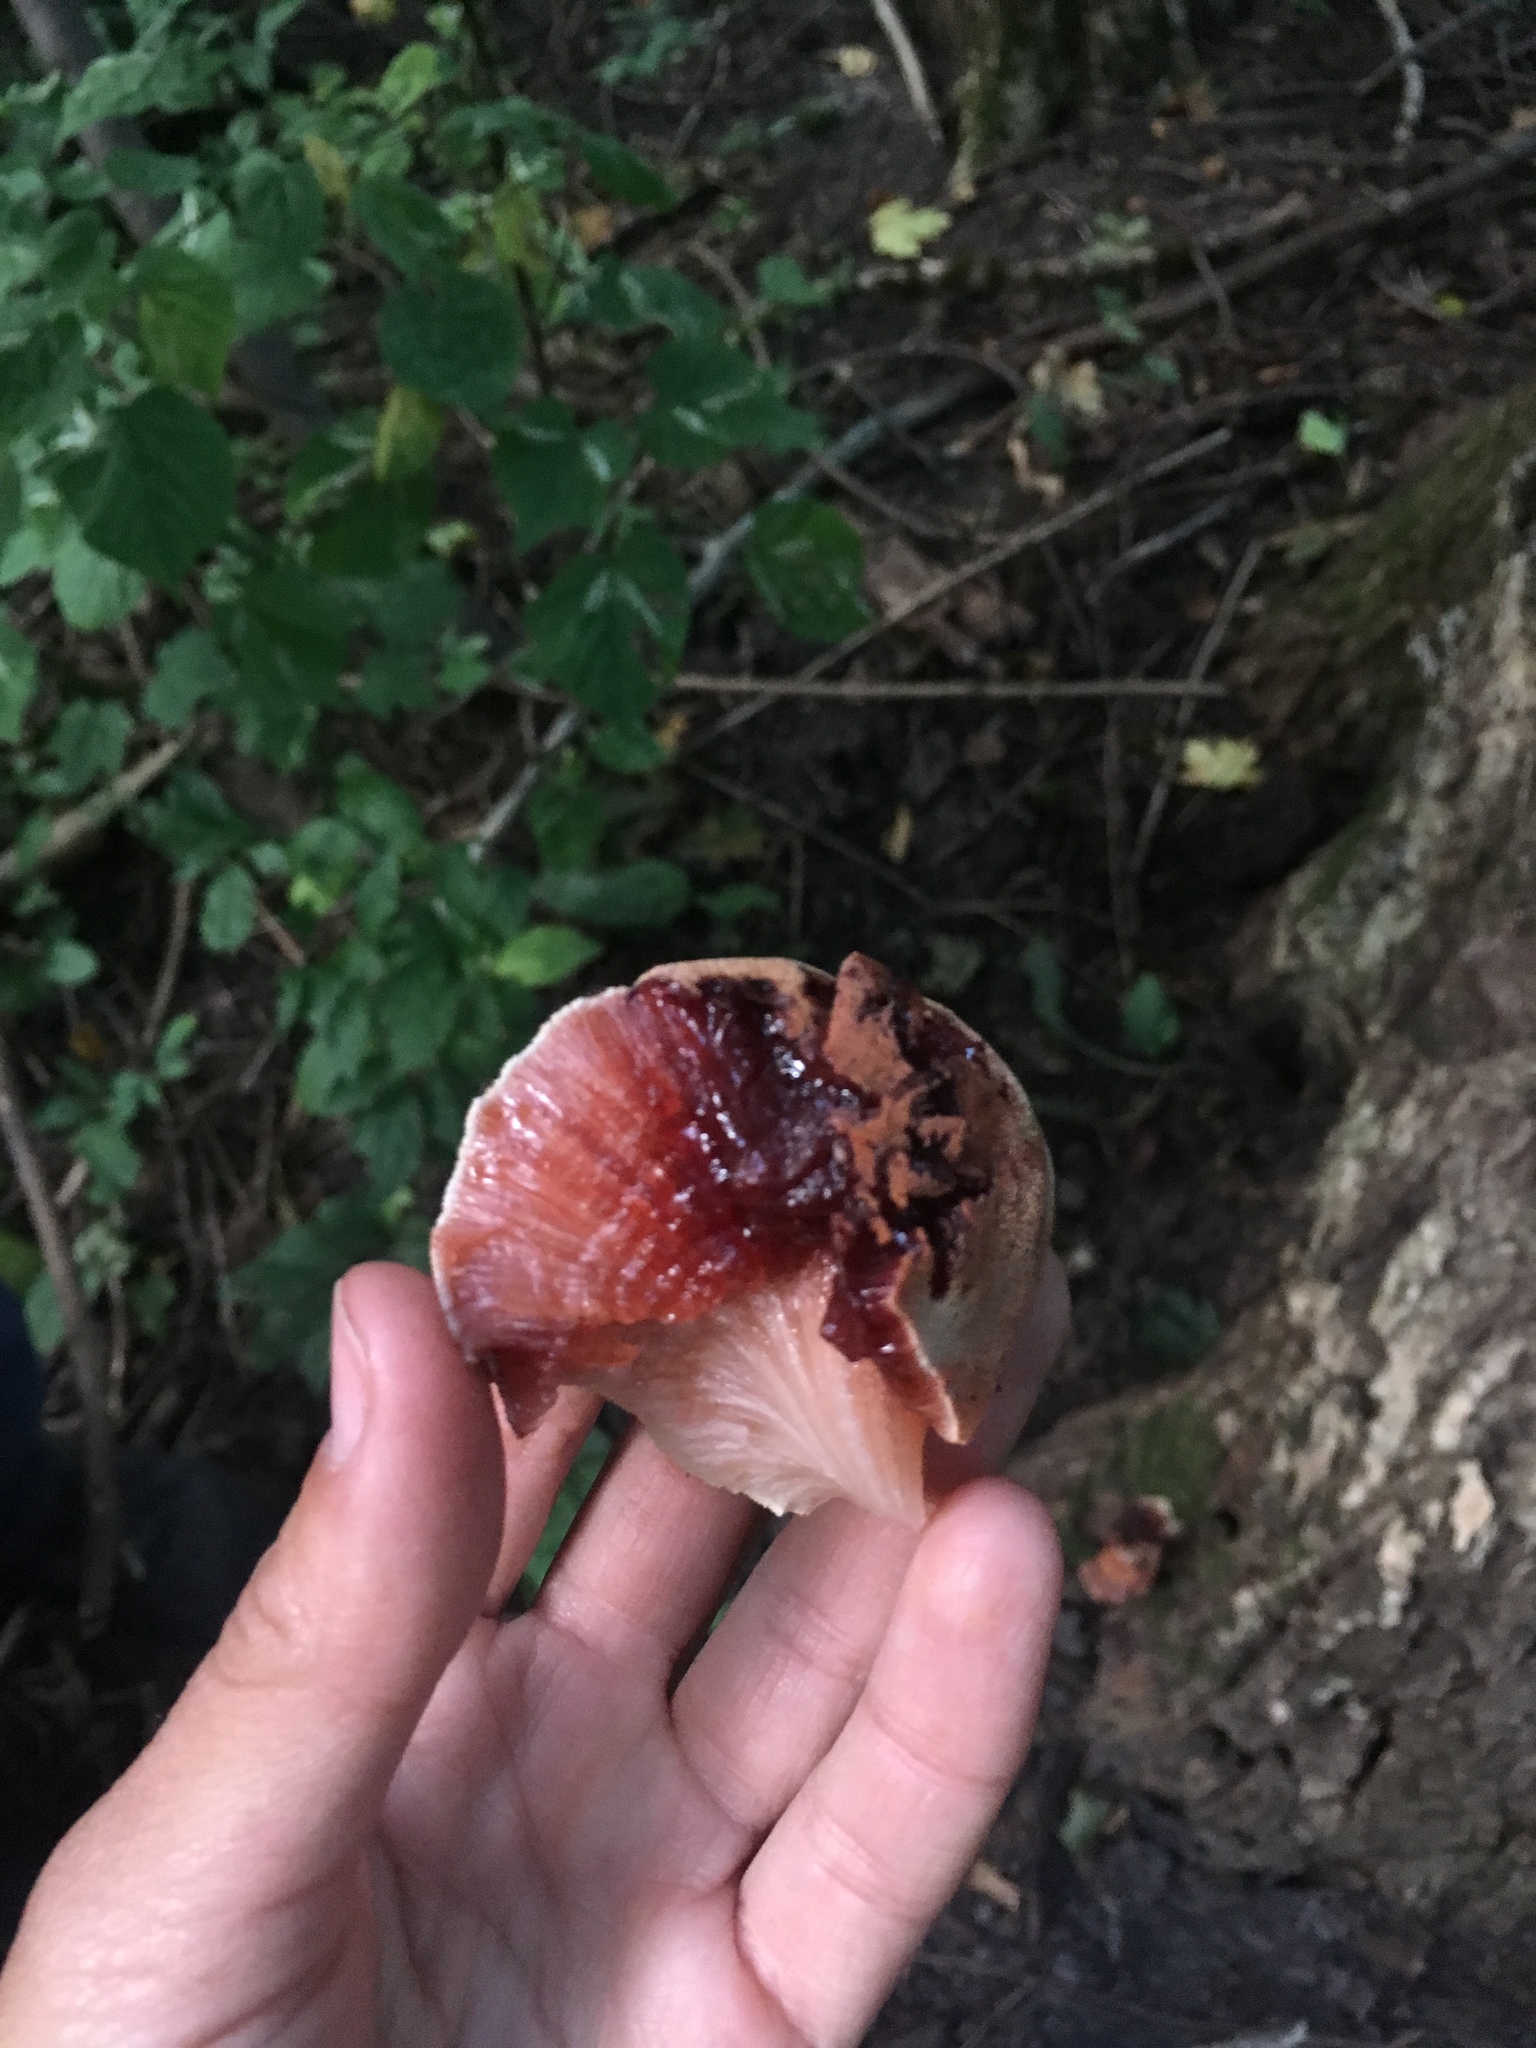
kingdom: Fungi
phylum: Basidiomycota
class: Agaricomycetes
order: Agaricales
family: Fistulinaceae
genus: Fistulina
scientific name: Fistulina hepatica
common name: Beef-steak fungus
